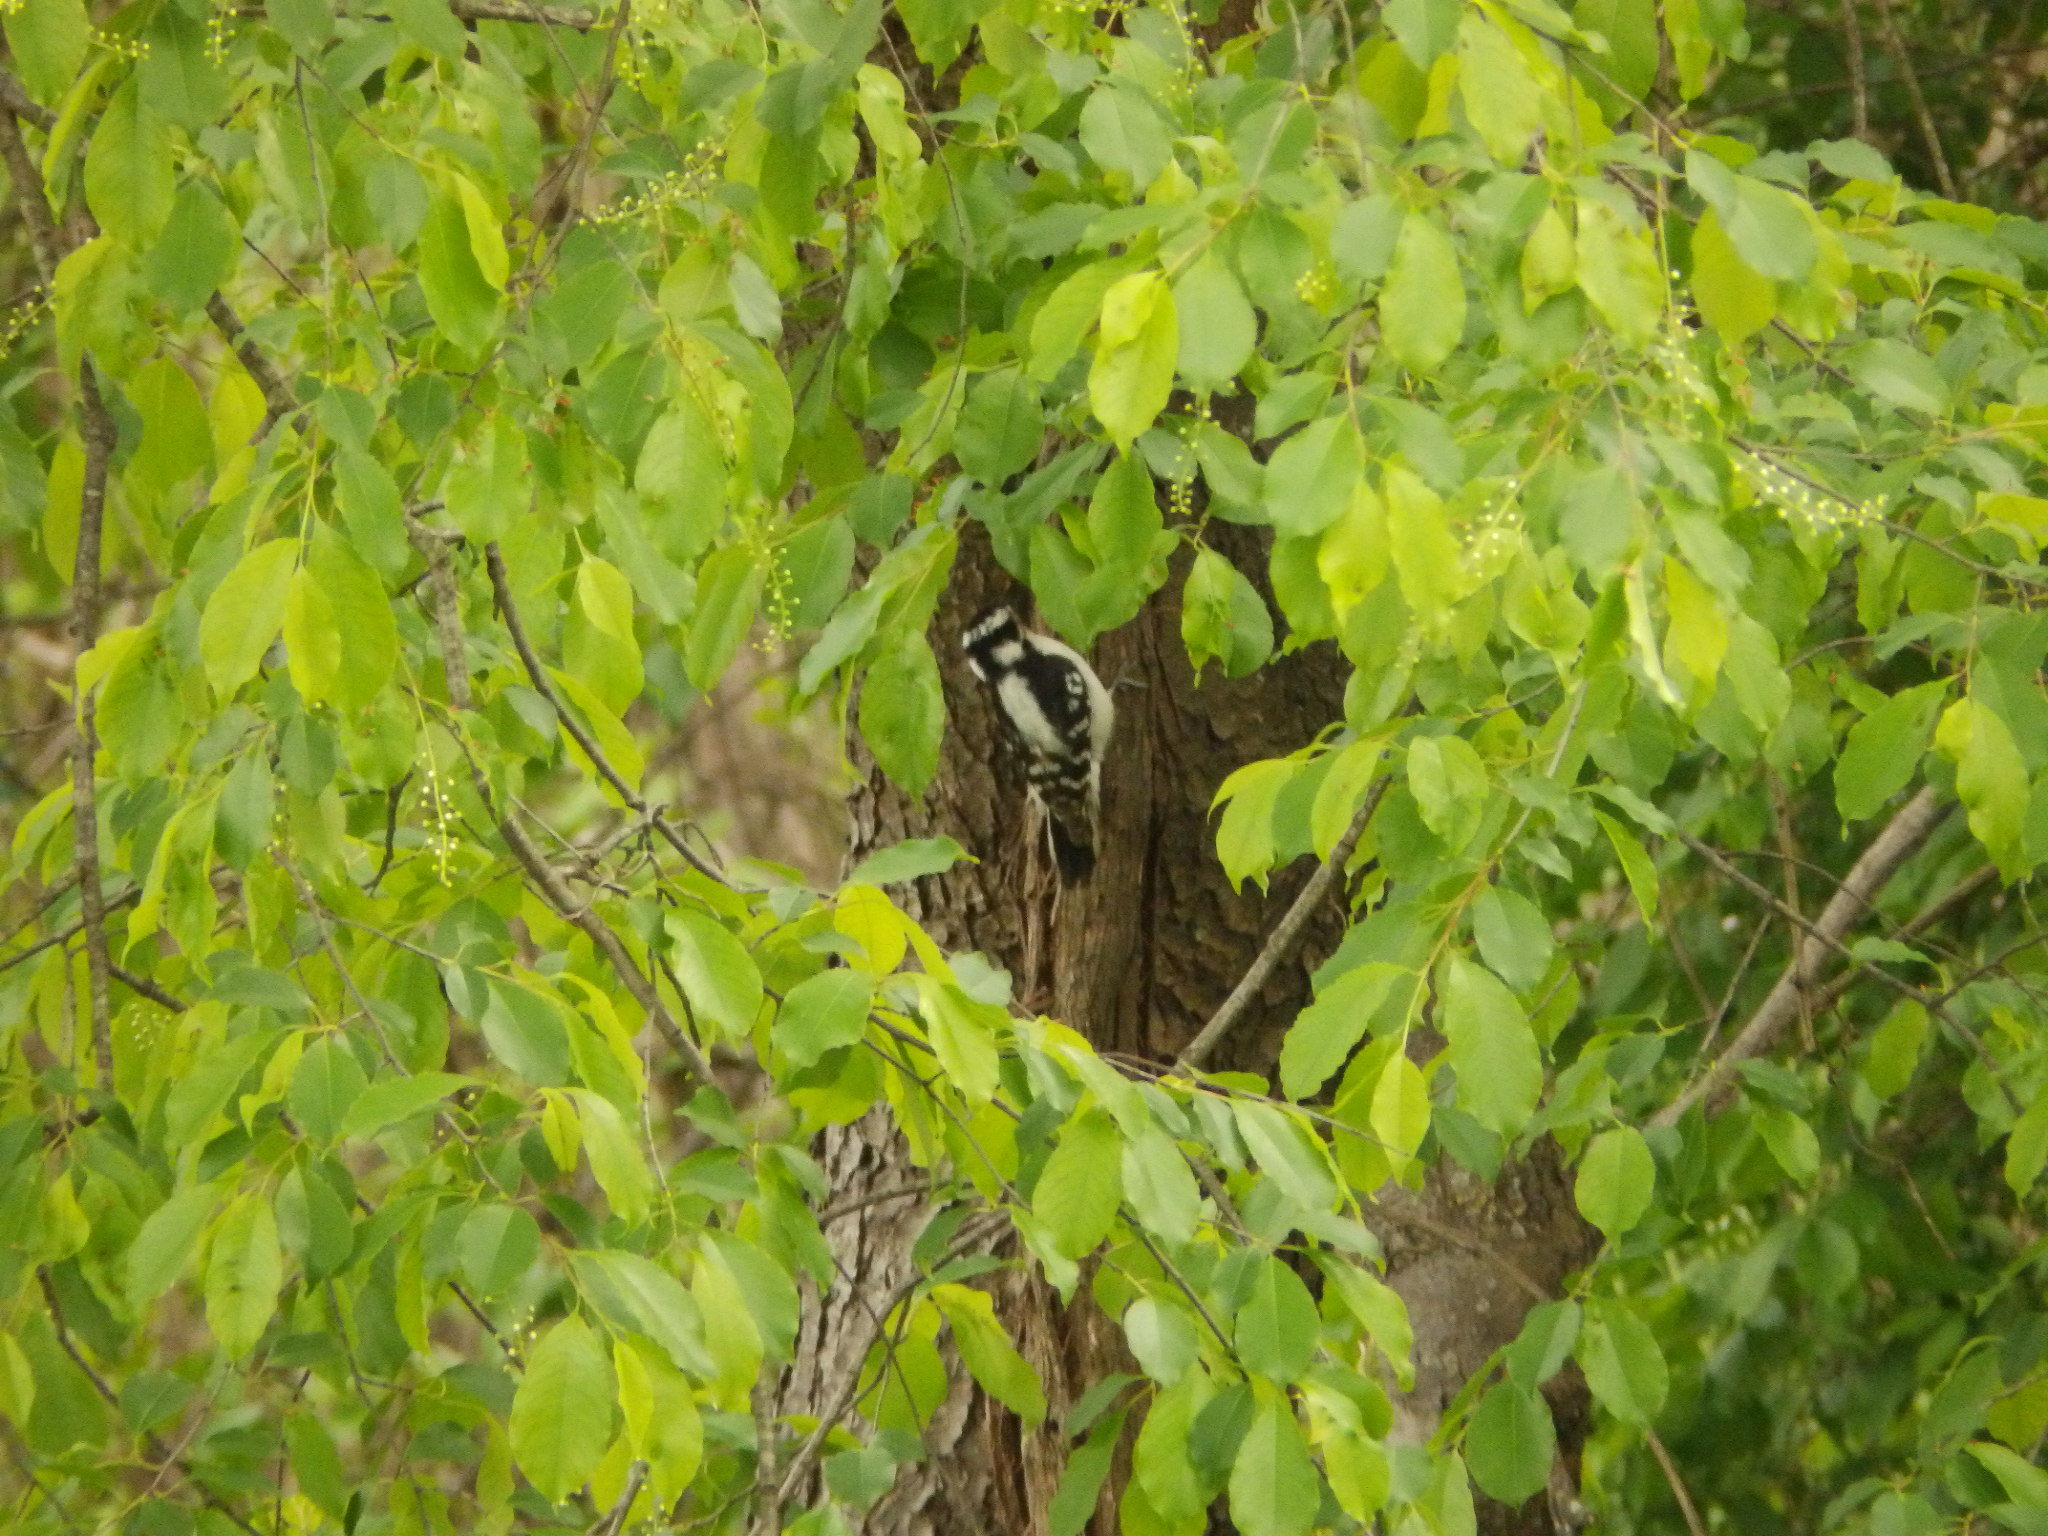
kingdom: Animalia
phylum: Chordata
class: Aves
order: Piciformes
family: Picidae
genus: Dryobates
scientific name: Dryobates pubescens
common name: Downy woodpecker
